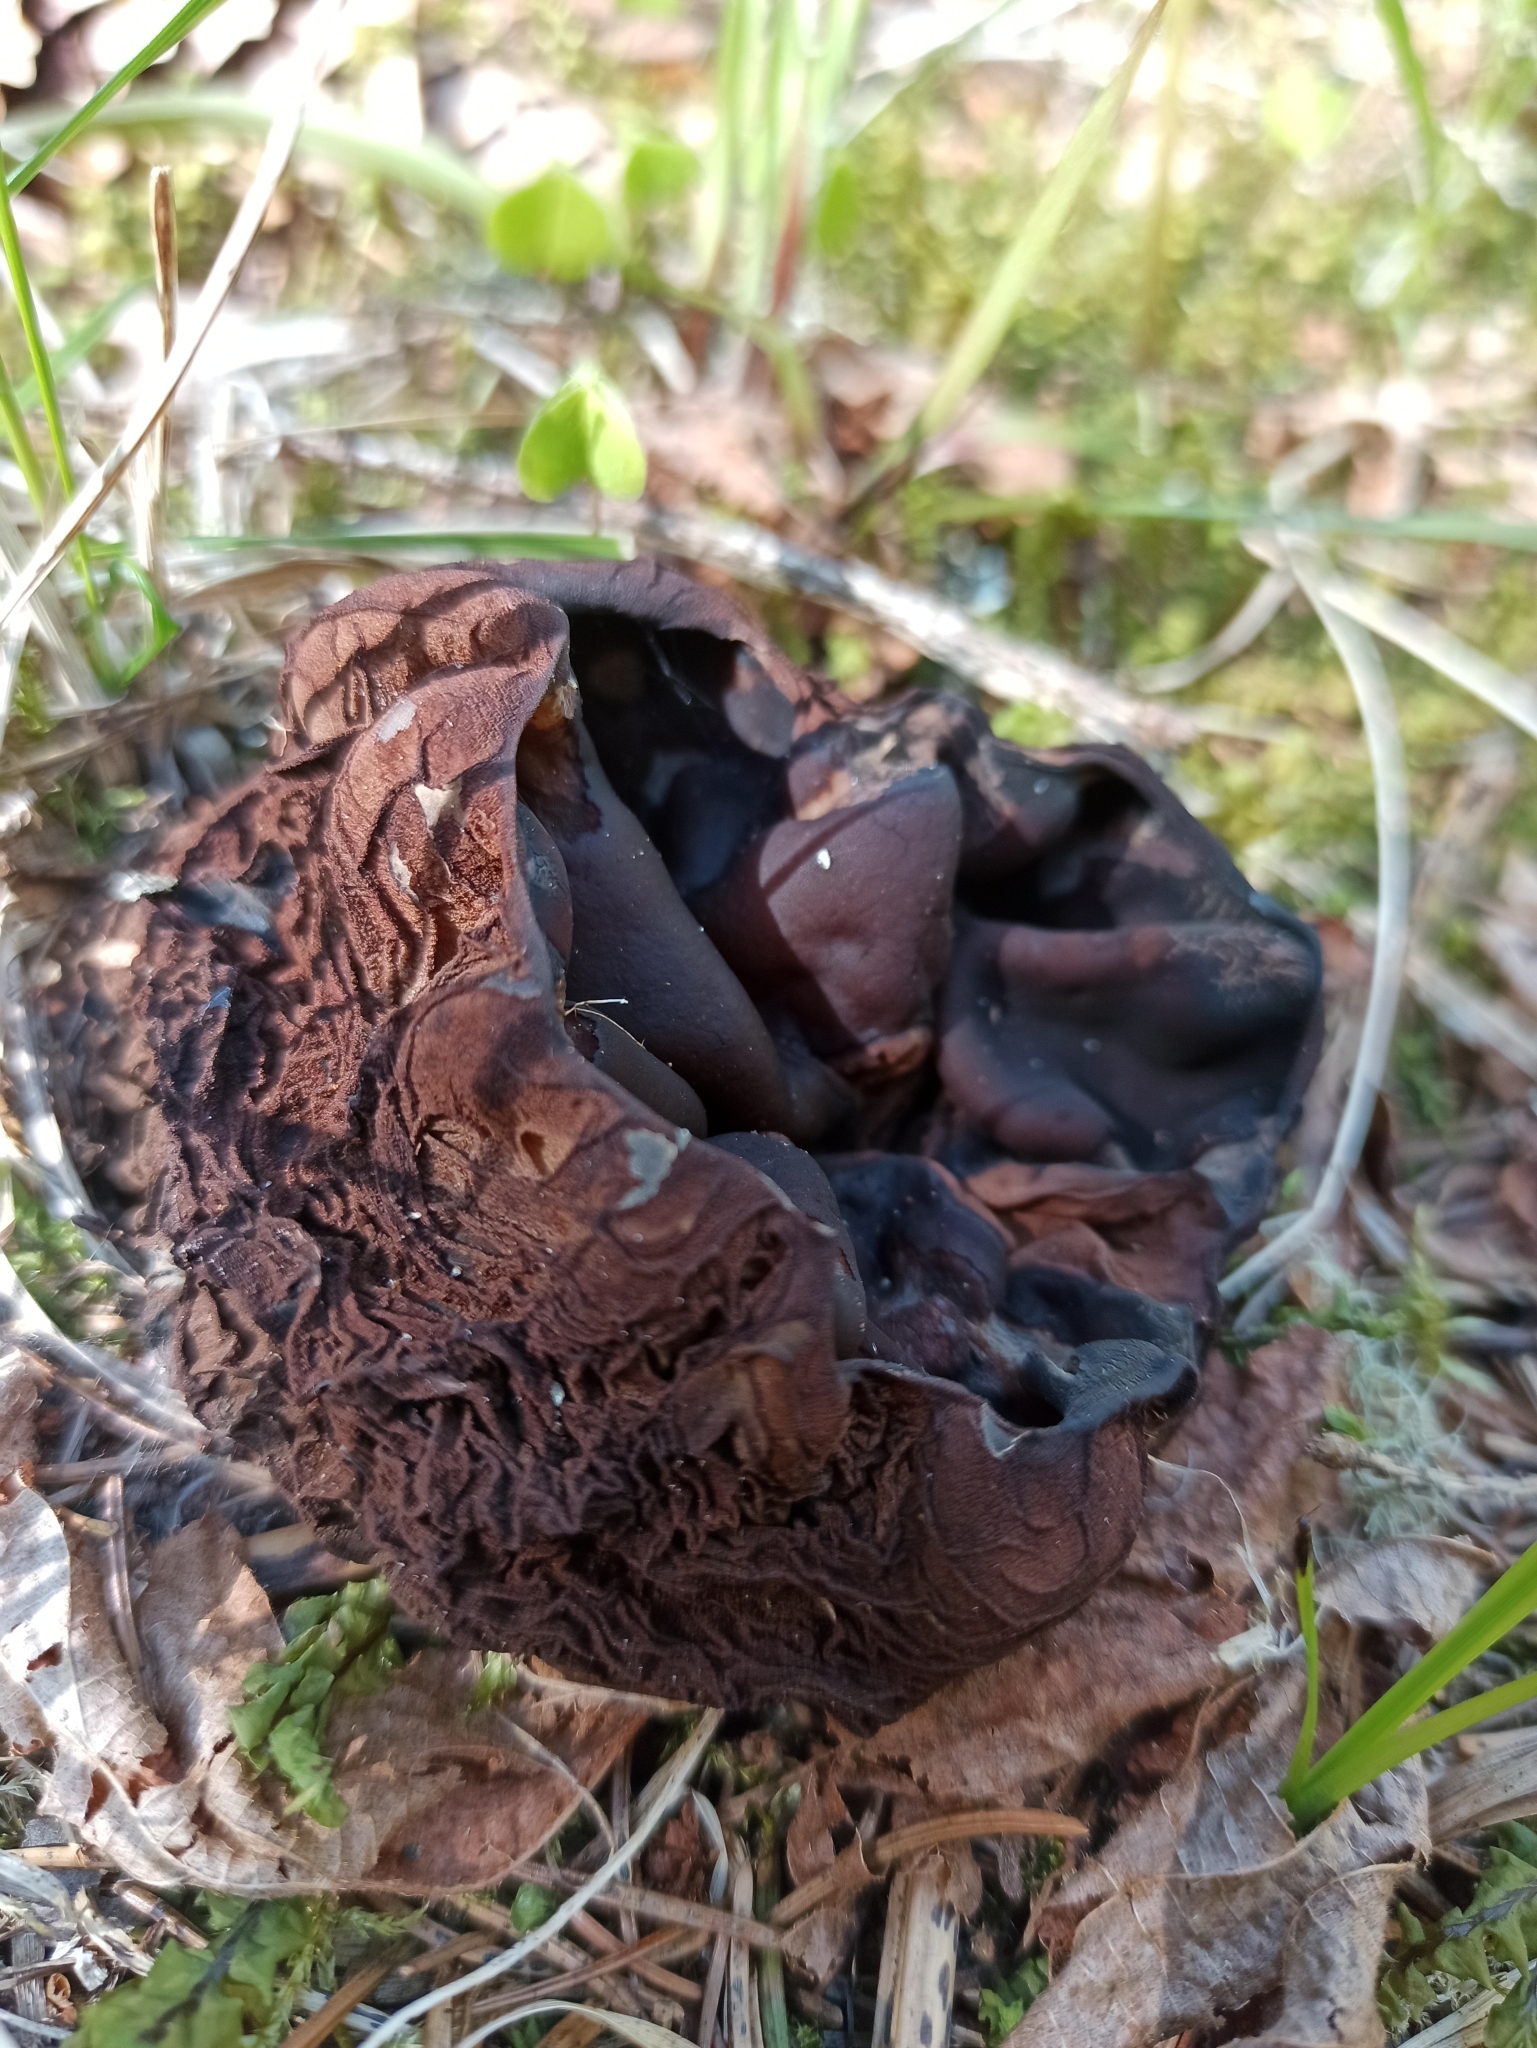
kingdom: Fungi
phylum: Ascomycota
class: Pezizomycetes
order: Pezizales
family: Sarcosomataceae
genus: Sarcosoma
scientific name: Sarcosoma globosum
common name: Charred-pancake cup
